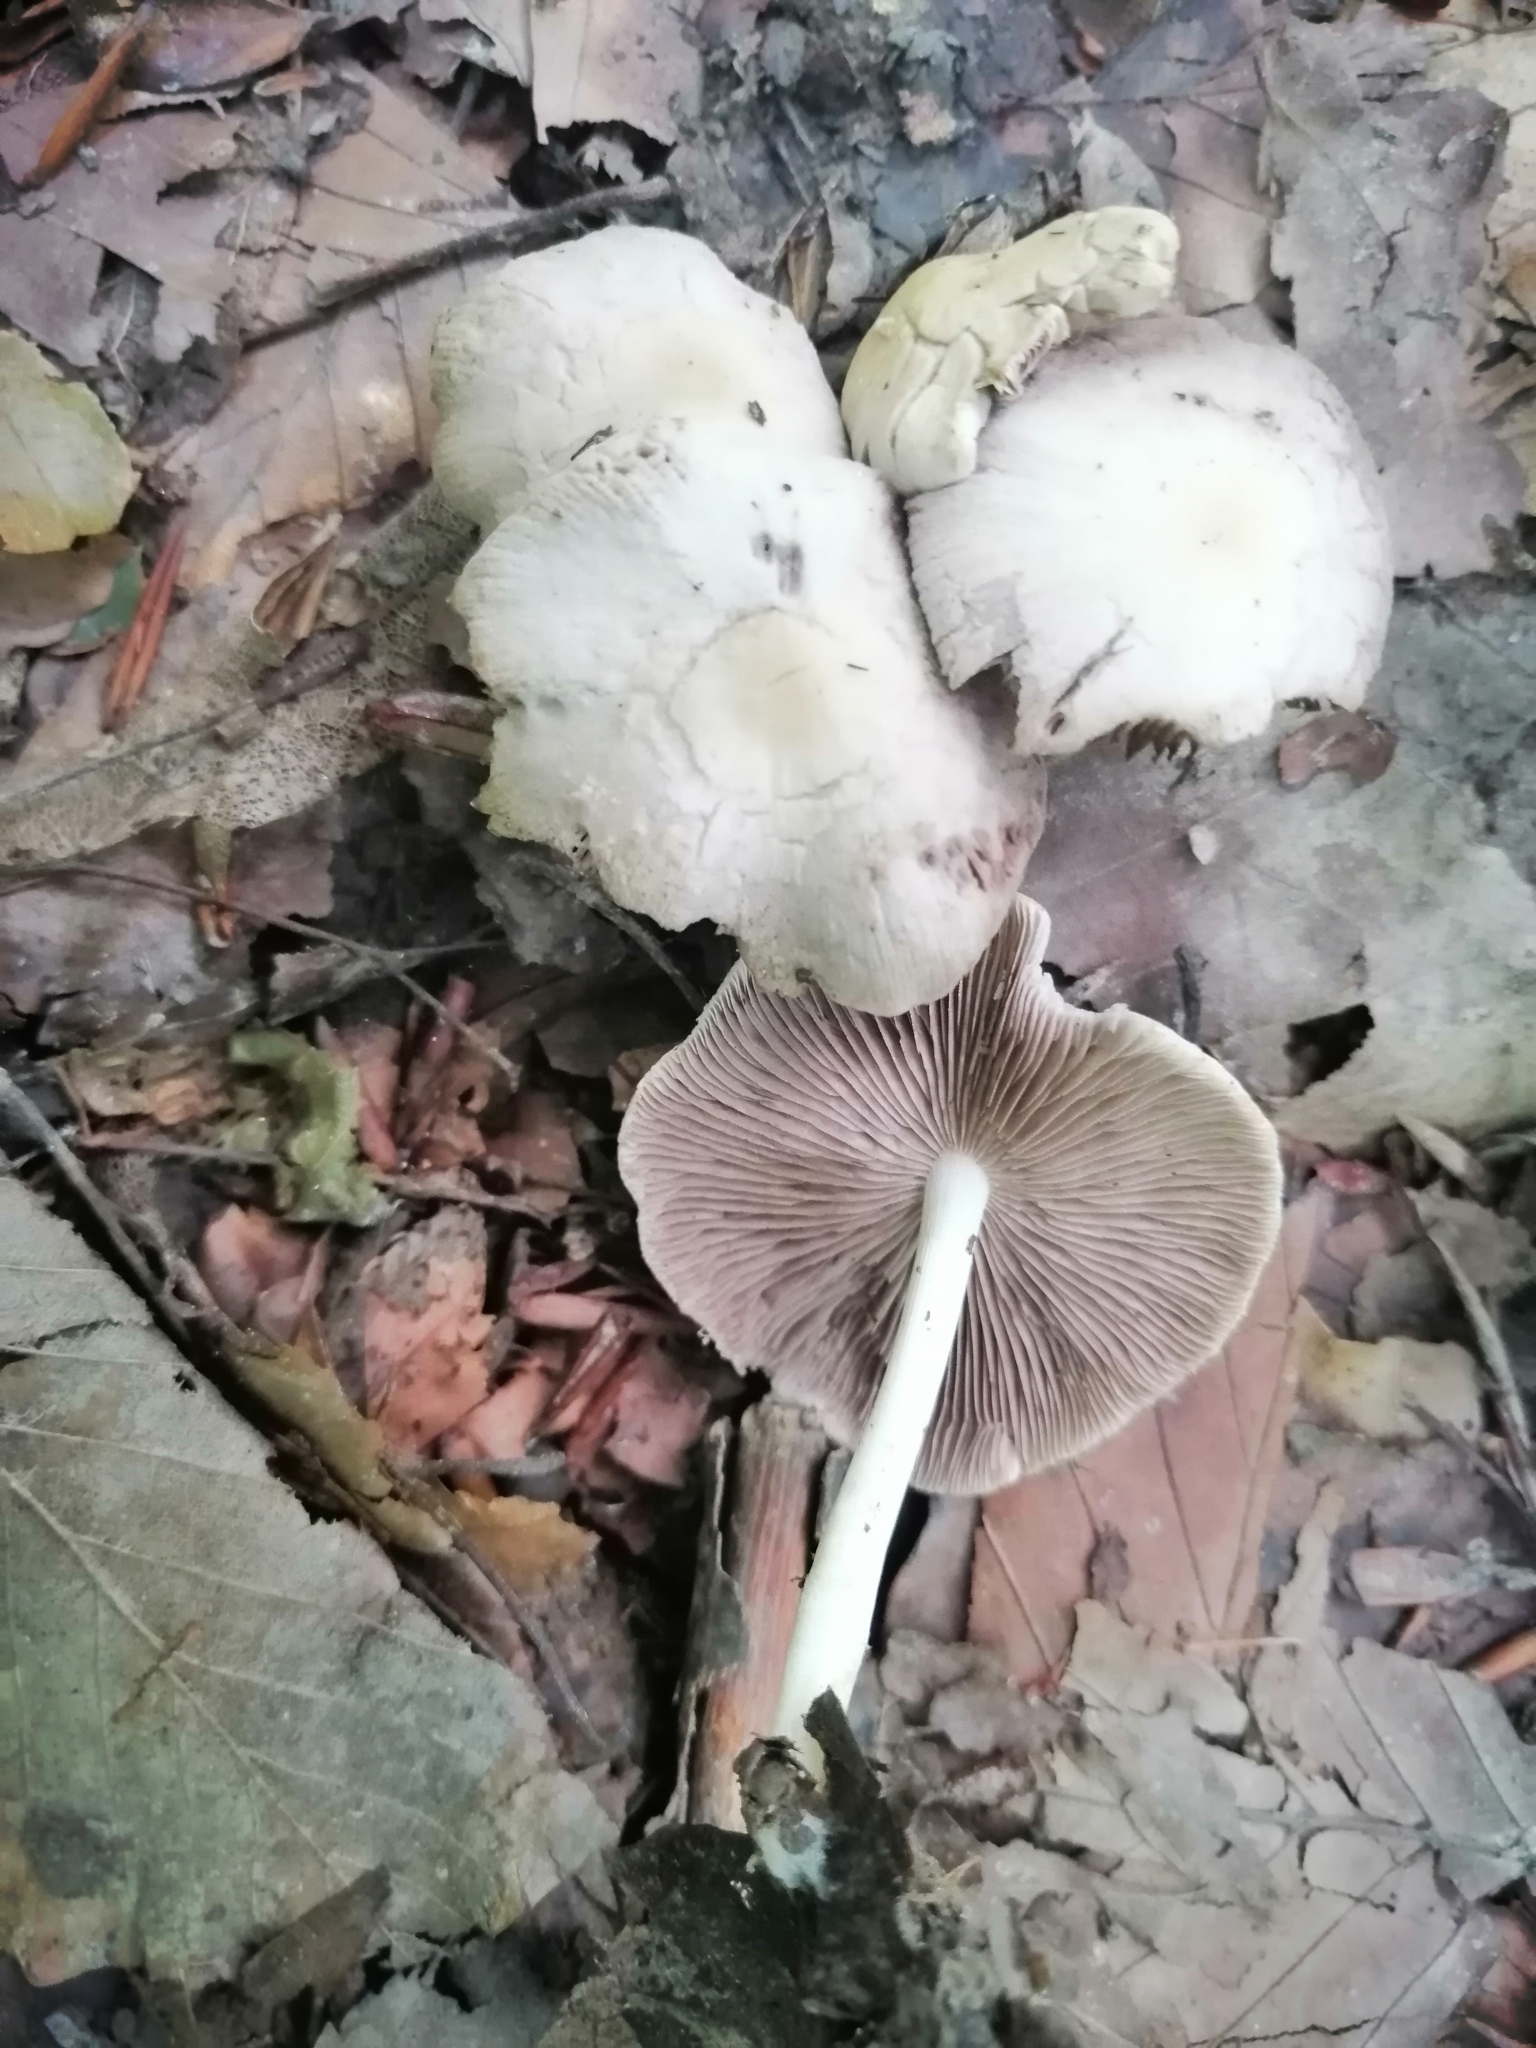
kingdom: Fungi
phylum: Basidiomycota
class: Agaricomycetes
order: Agaricales
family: Psathyrellaceae
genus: Candolleomyces
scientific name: Candolleomyces candolleanus
